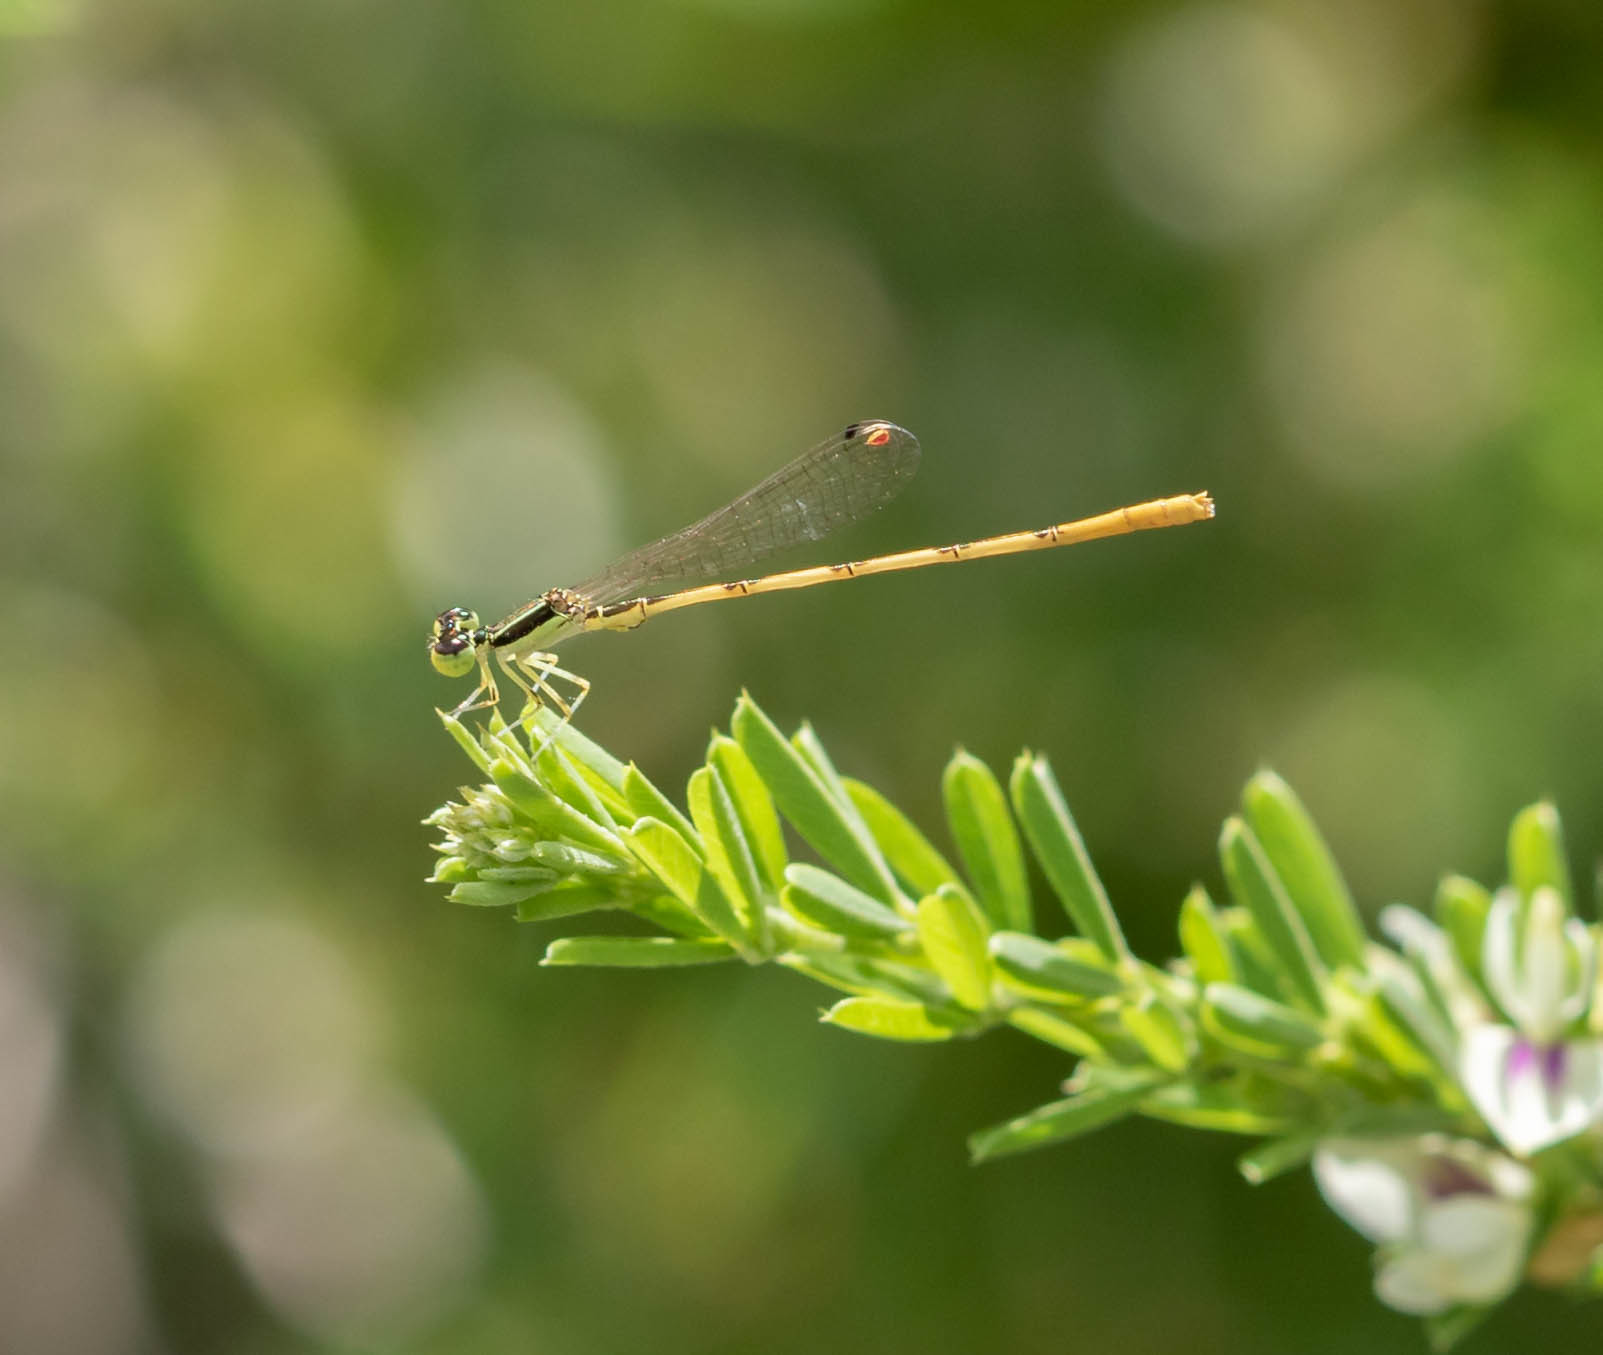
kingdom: Animalia
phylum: Arthropoda
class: Insecta
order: Odonata
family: Coenagrionidae
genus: Ischnura
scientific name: Ischnura hastata
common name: Citrine forktail
